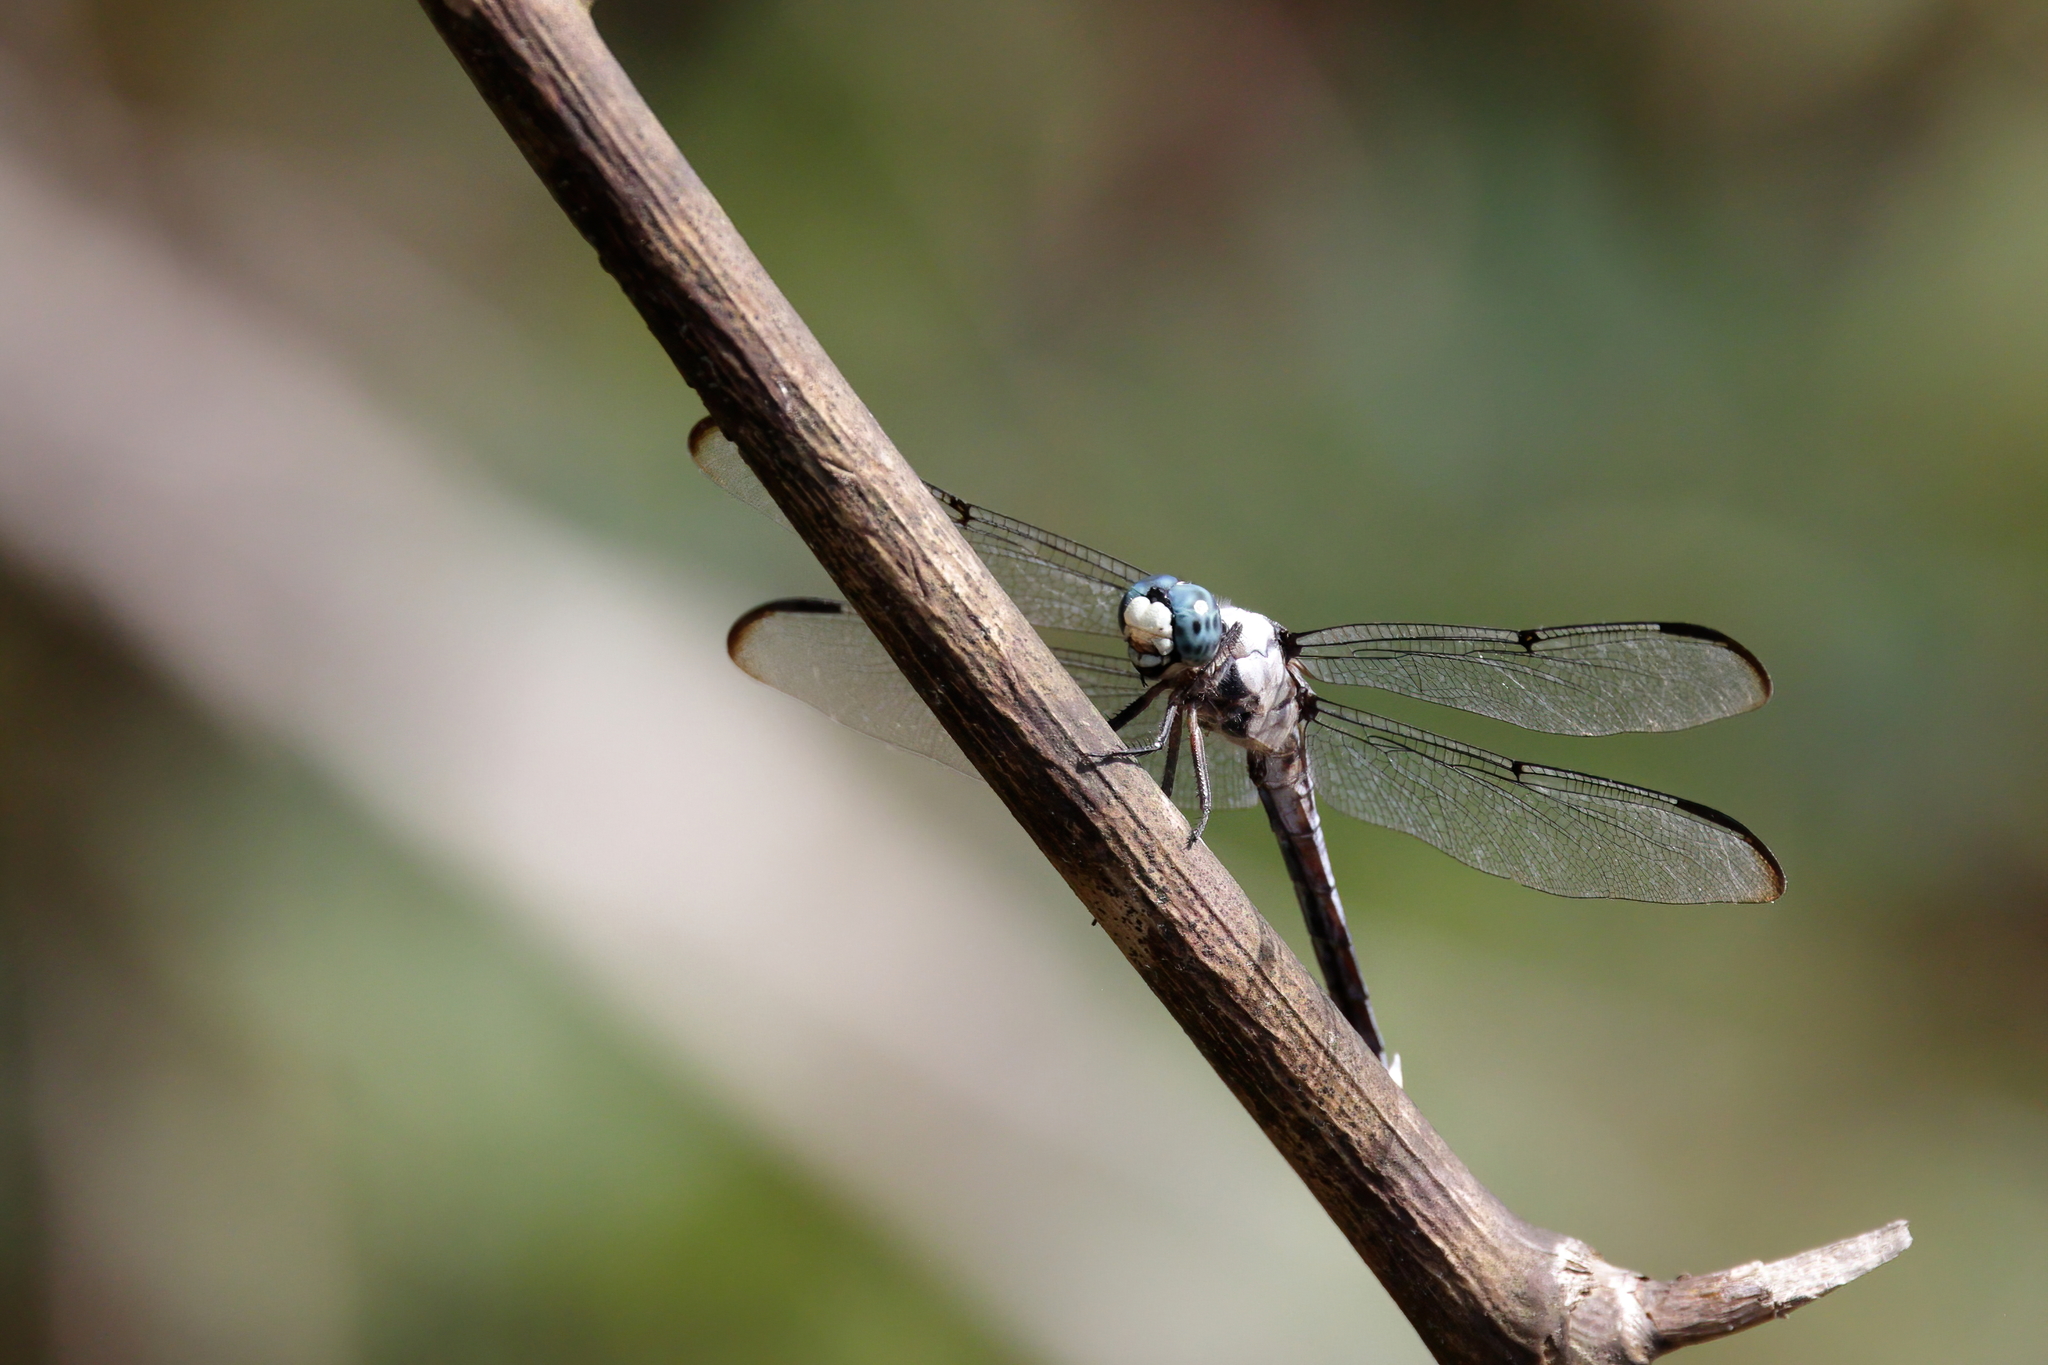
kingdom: Animalia
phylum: Arthropoda
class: Insecta
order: Odonata
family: Libellulidae
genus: Libellula
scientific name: Libellula vibrans
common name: Great blue skimmer
